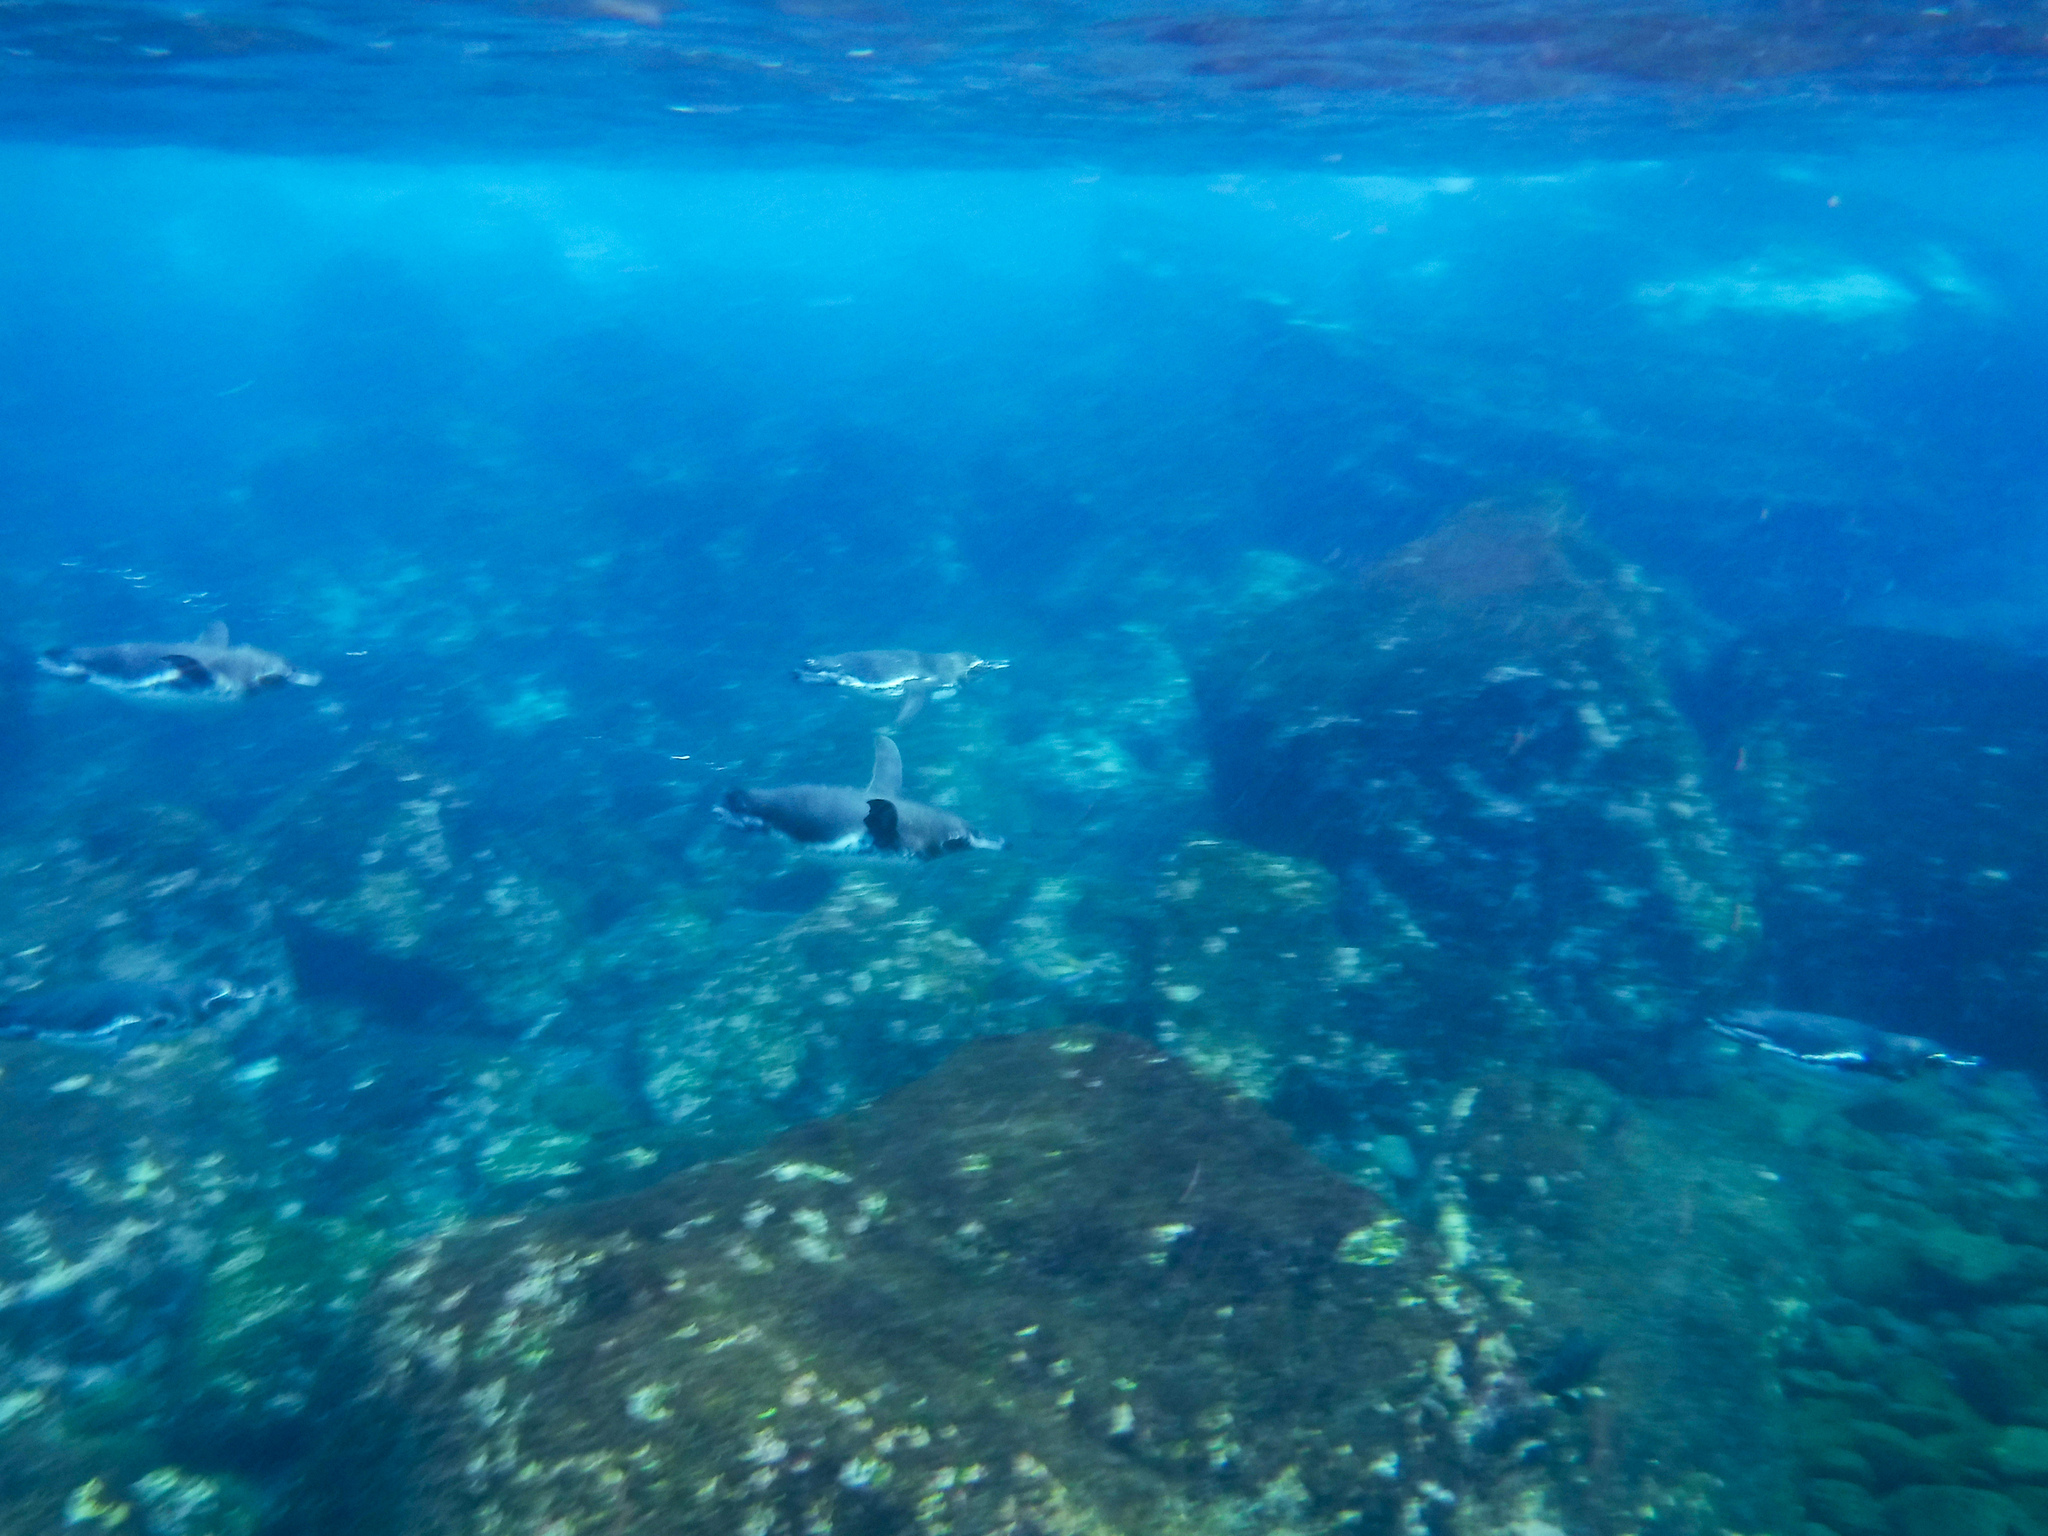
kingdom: Animalia
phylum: Chordata
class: Aves
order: Sphenisciformes
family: Spheniscidae
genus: Spheniscus
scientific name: Spheniscus mendiculus
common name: Galapagos penguin
